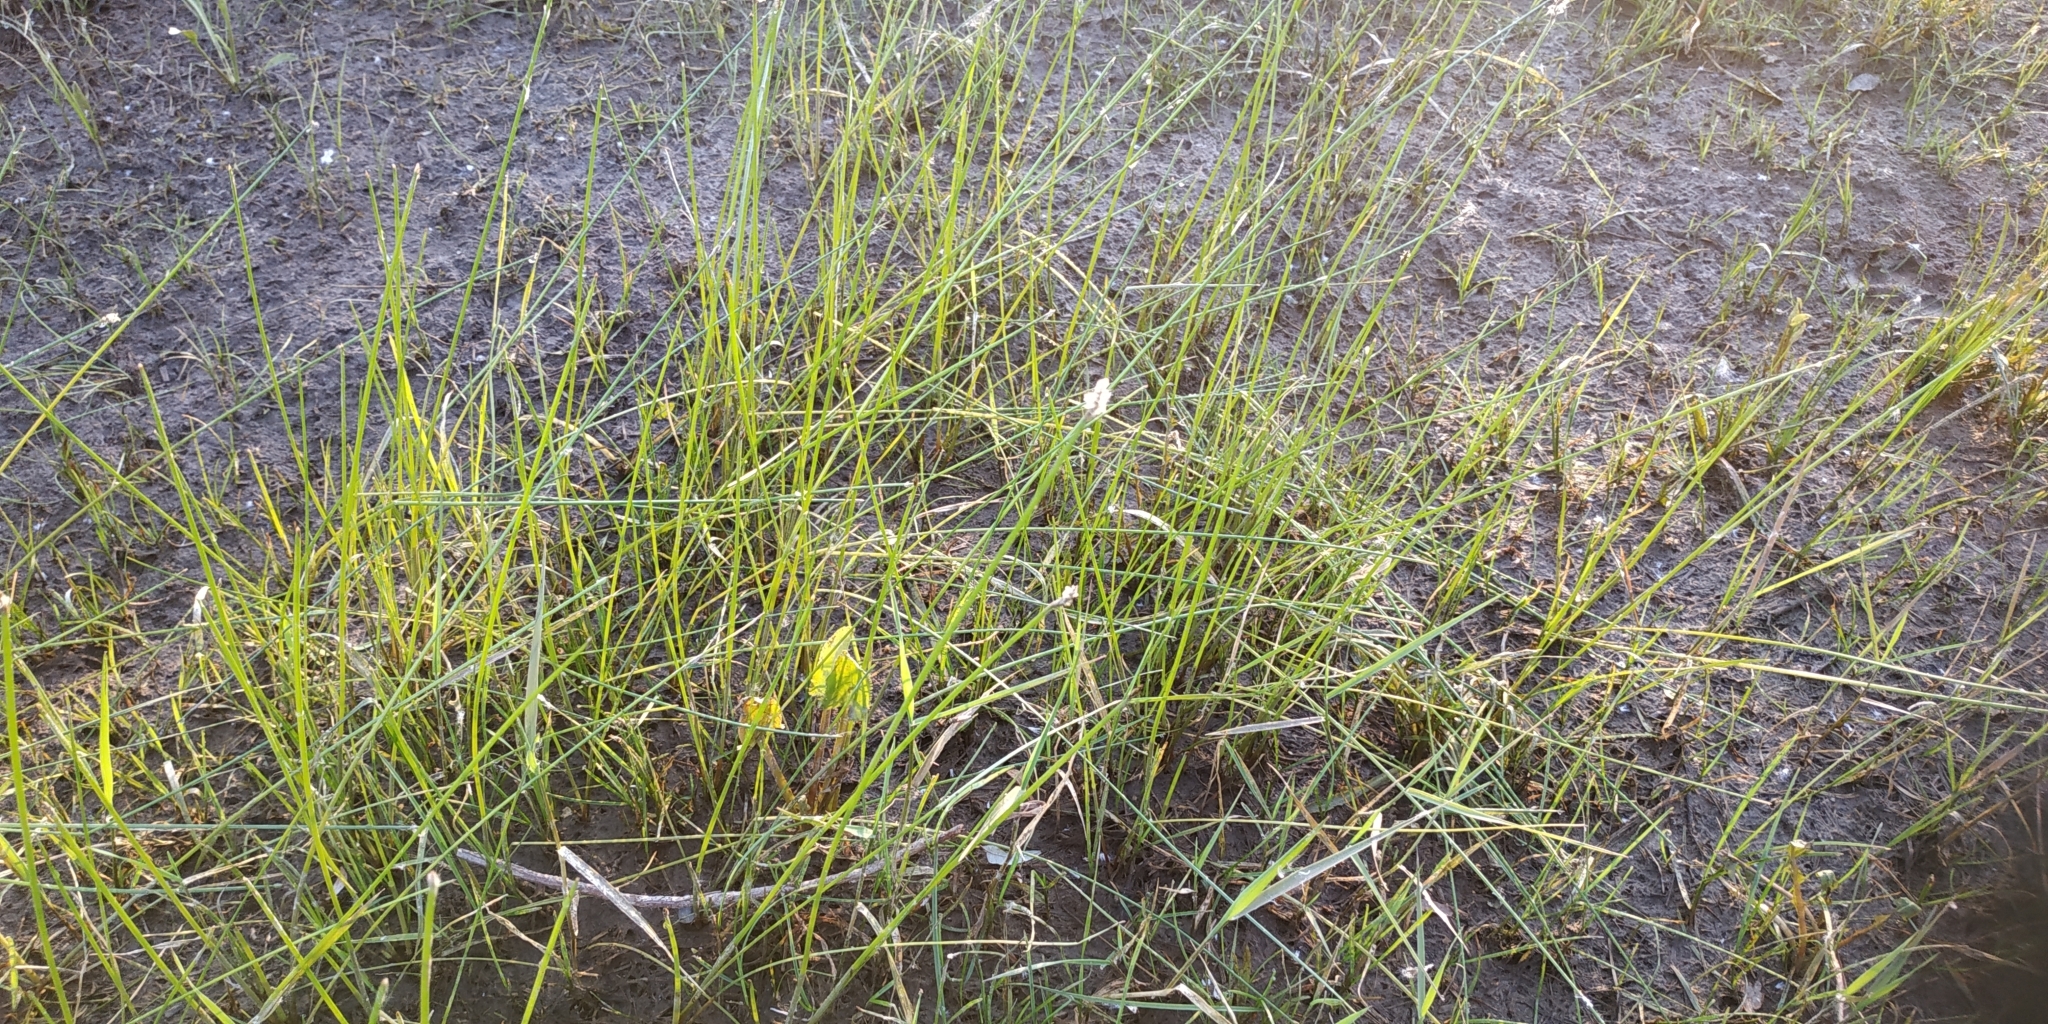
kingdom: Plantae
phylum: Tracheophyta
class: Liliopsida
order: Poales
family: Cyperaceae
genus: Eleocharis
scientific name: Eleocharis palustris
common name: Common spike-rush
